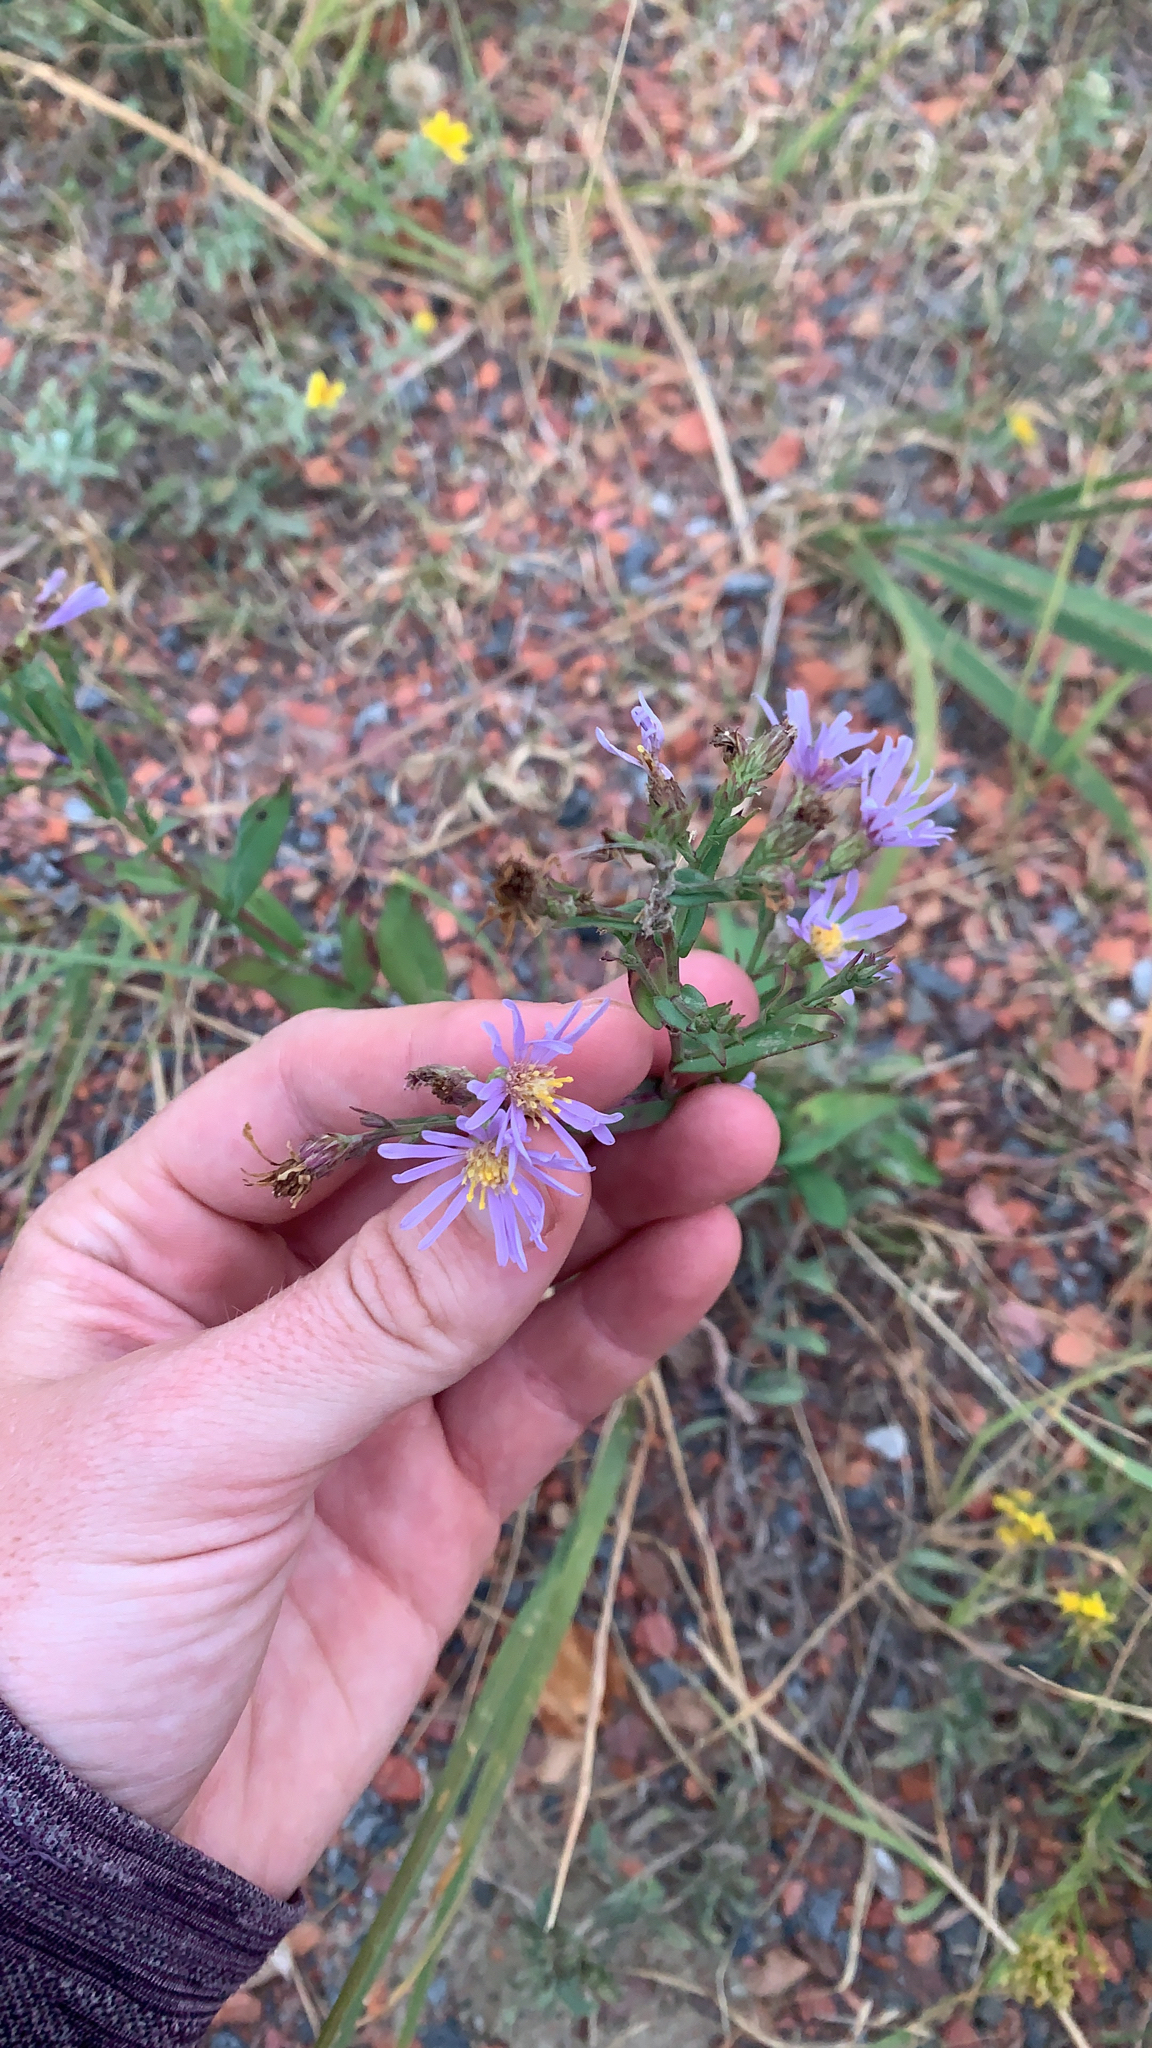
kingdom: Plantae
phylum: Tracheophyta
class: Magnoliopsida
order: Asterales
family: Asteraceae
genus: Symphyotrichum
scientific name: Symphyotrichum laeve
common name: Glaucous aster
